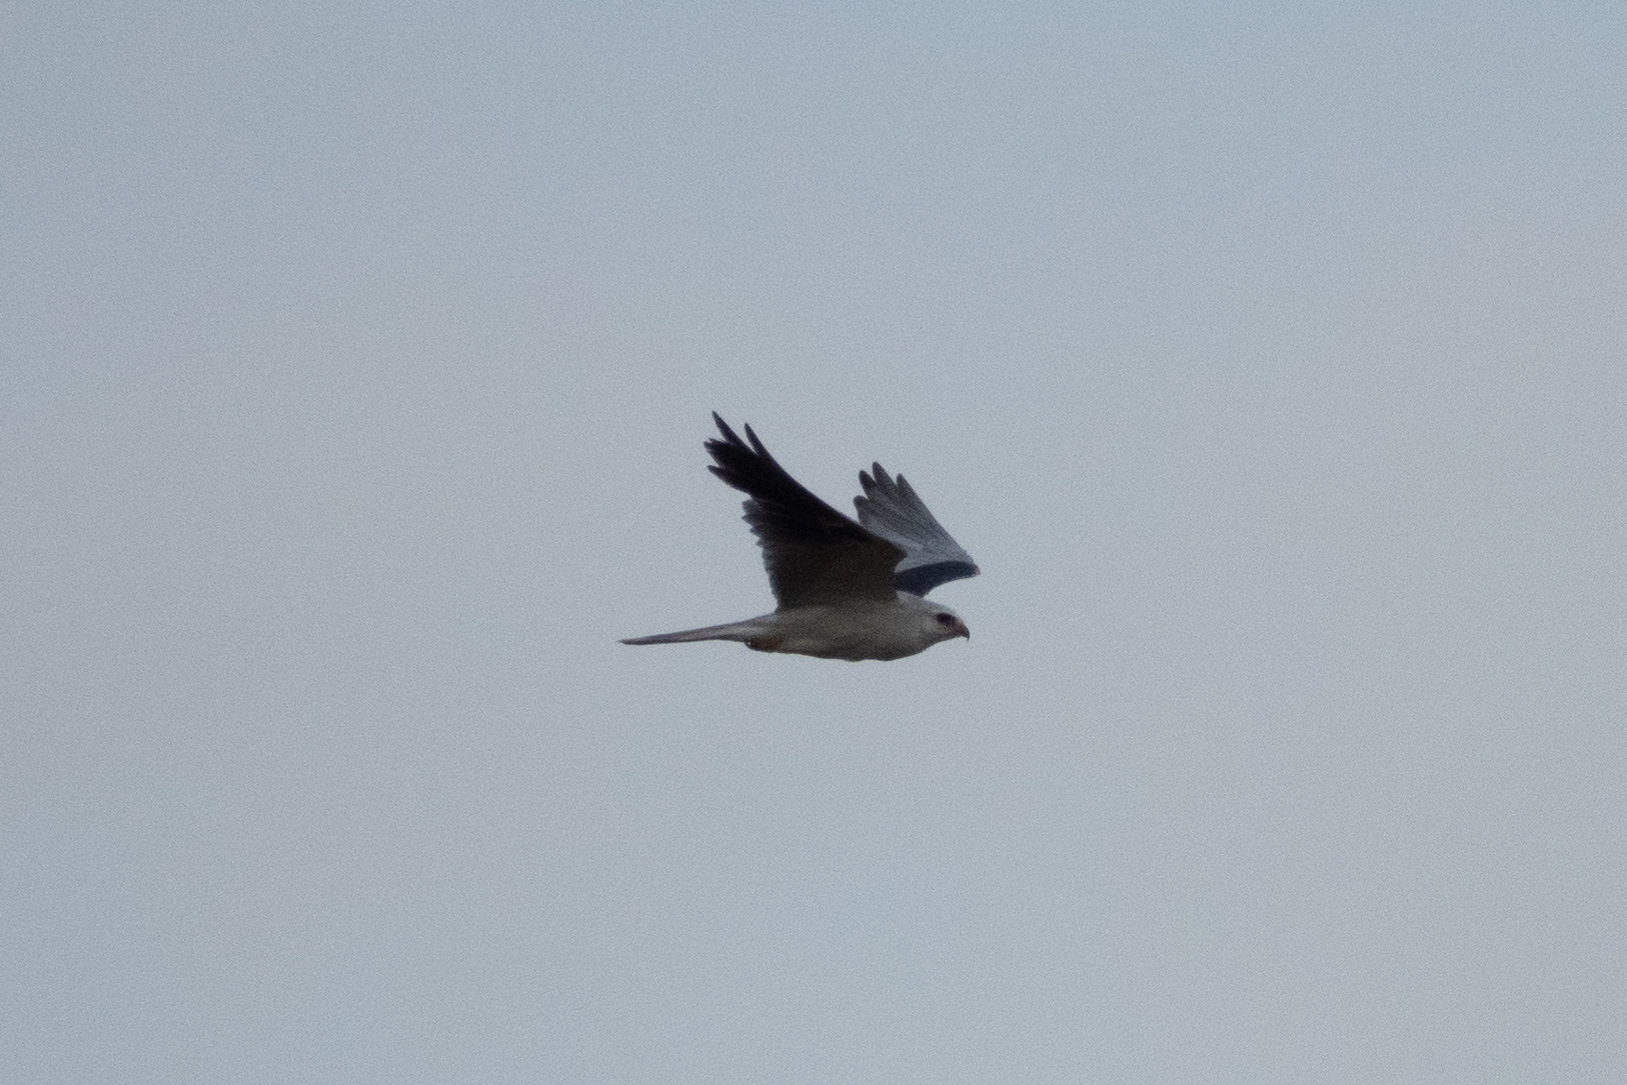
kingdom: Animalia
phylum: Chordata
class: Aves
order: Accipitriformes
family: Accipitridae
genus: Elanus
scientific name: Elanus leucurus
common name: White-tailed kite
